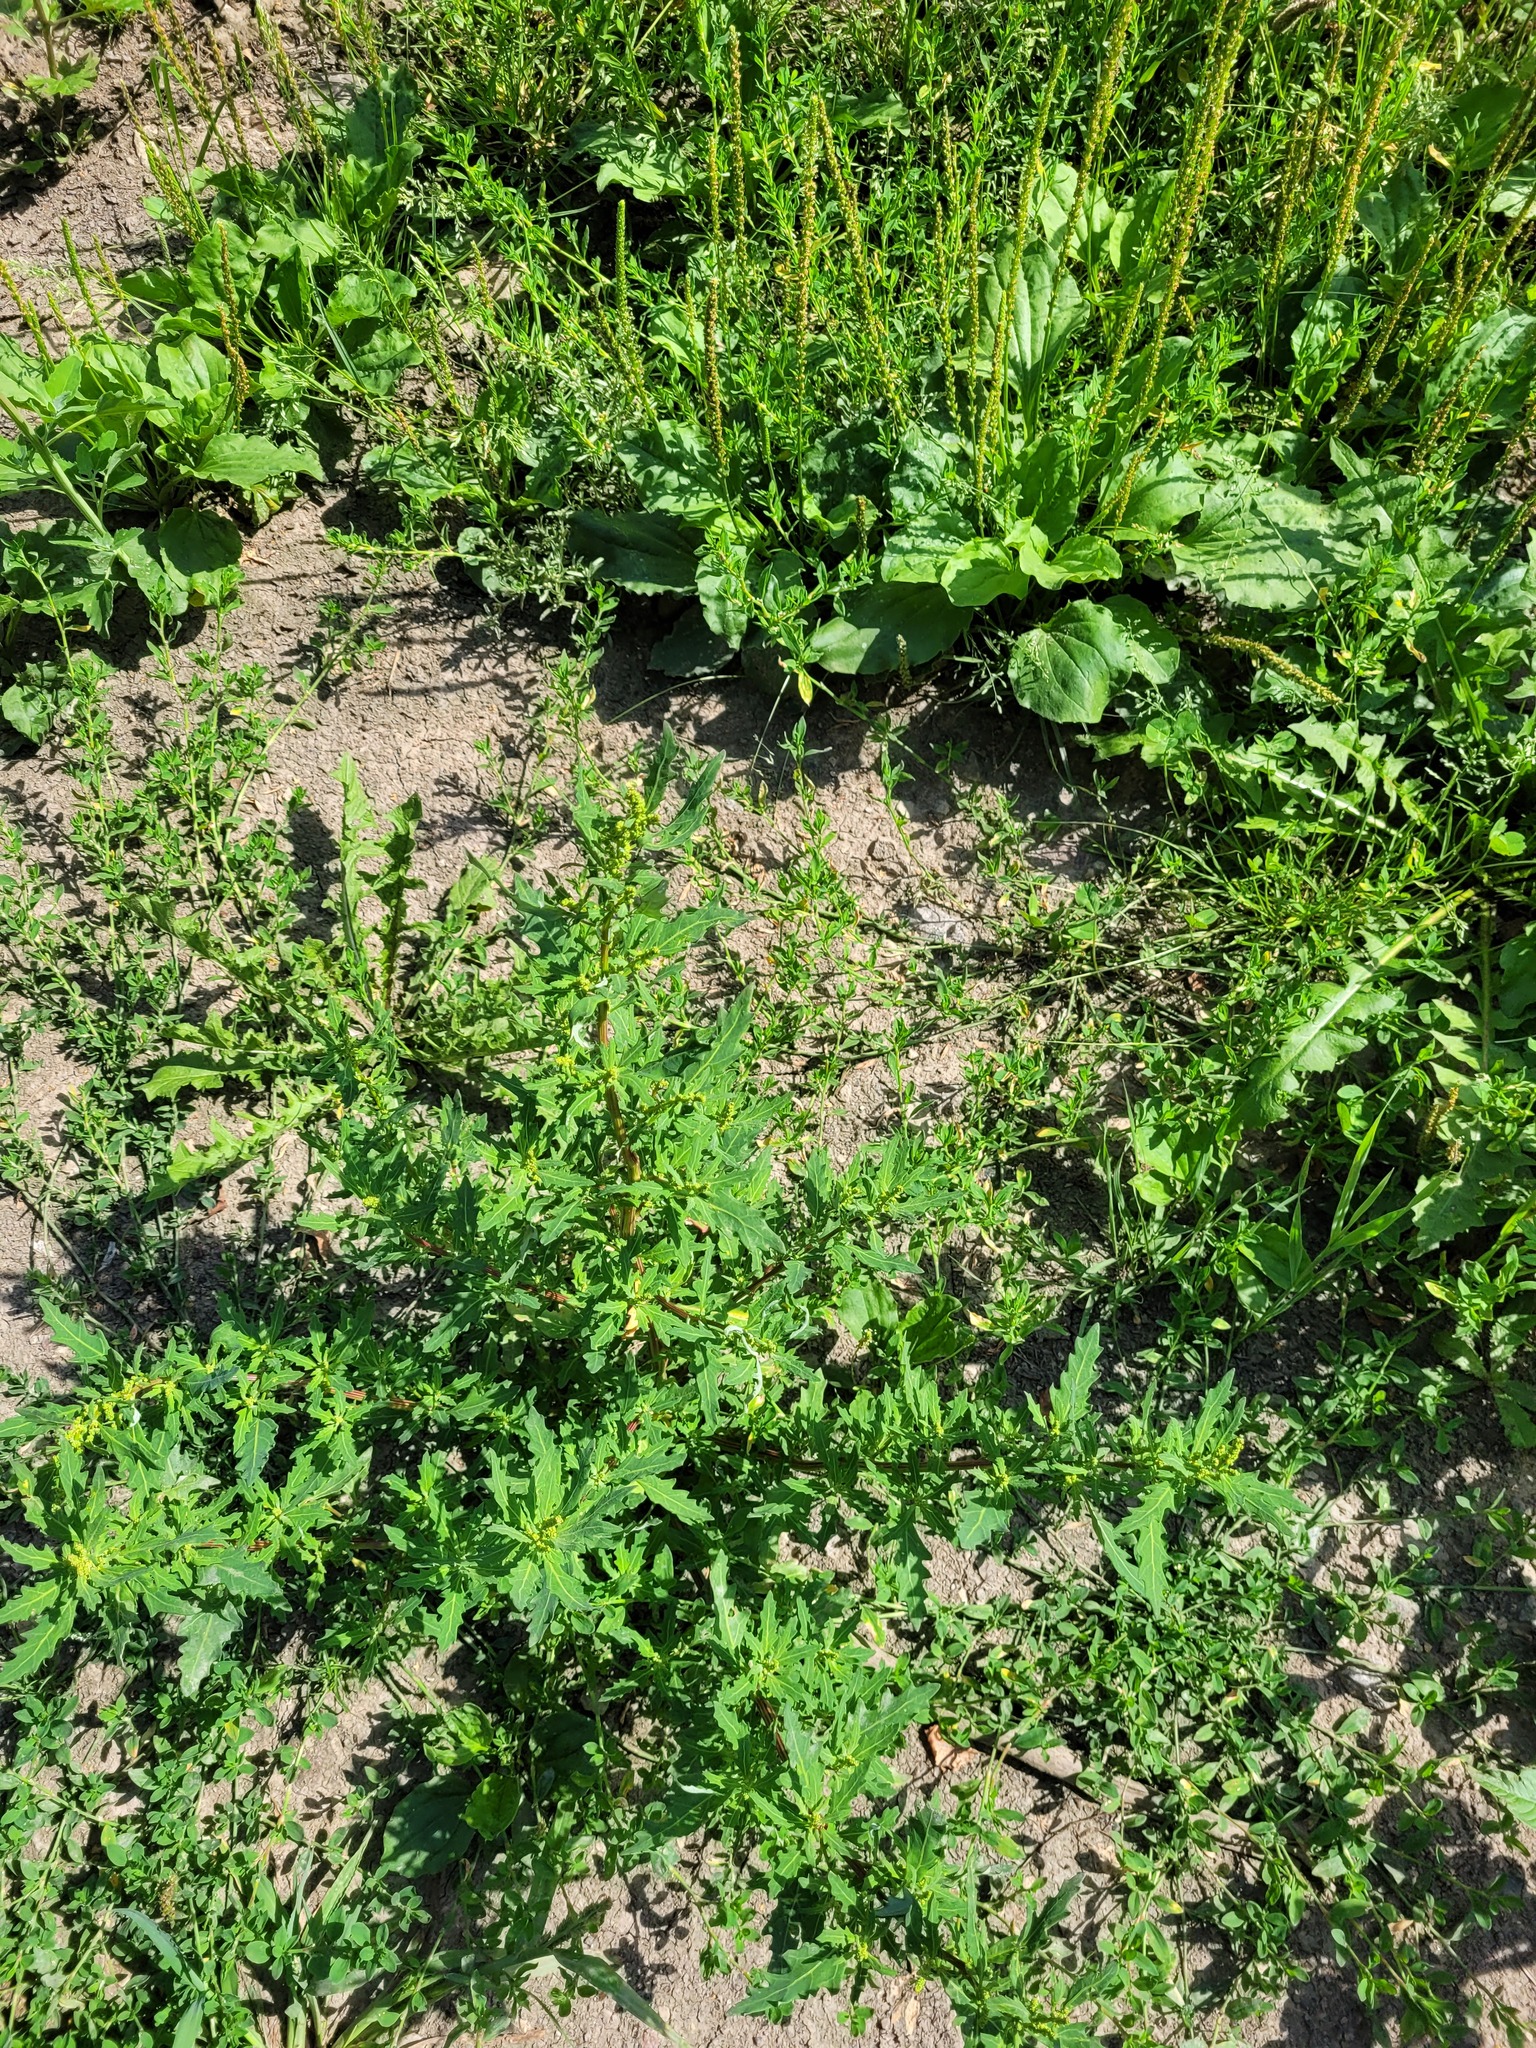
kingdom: Plantae
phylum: Tracheophyta
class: Magnoliopsida
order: Caryophyllales
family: Amaranthaceae
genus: Oxybasis
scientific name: Oxybasis glauca
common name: Glaucous goosefoot
